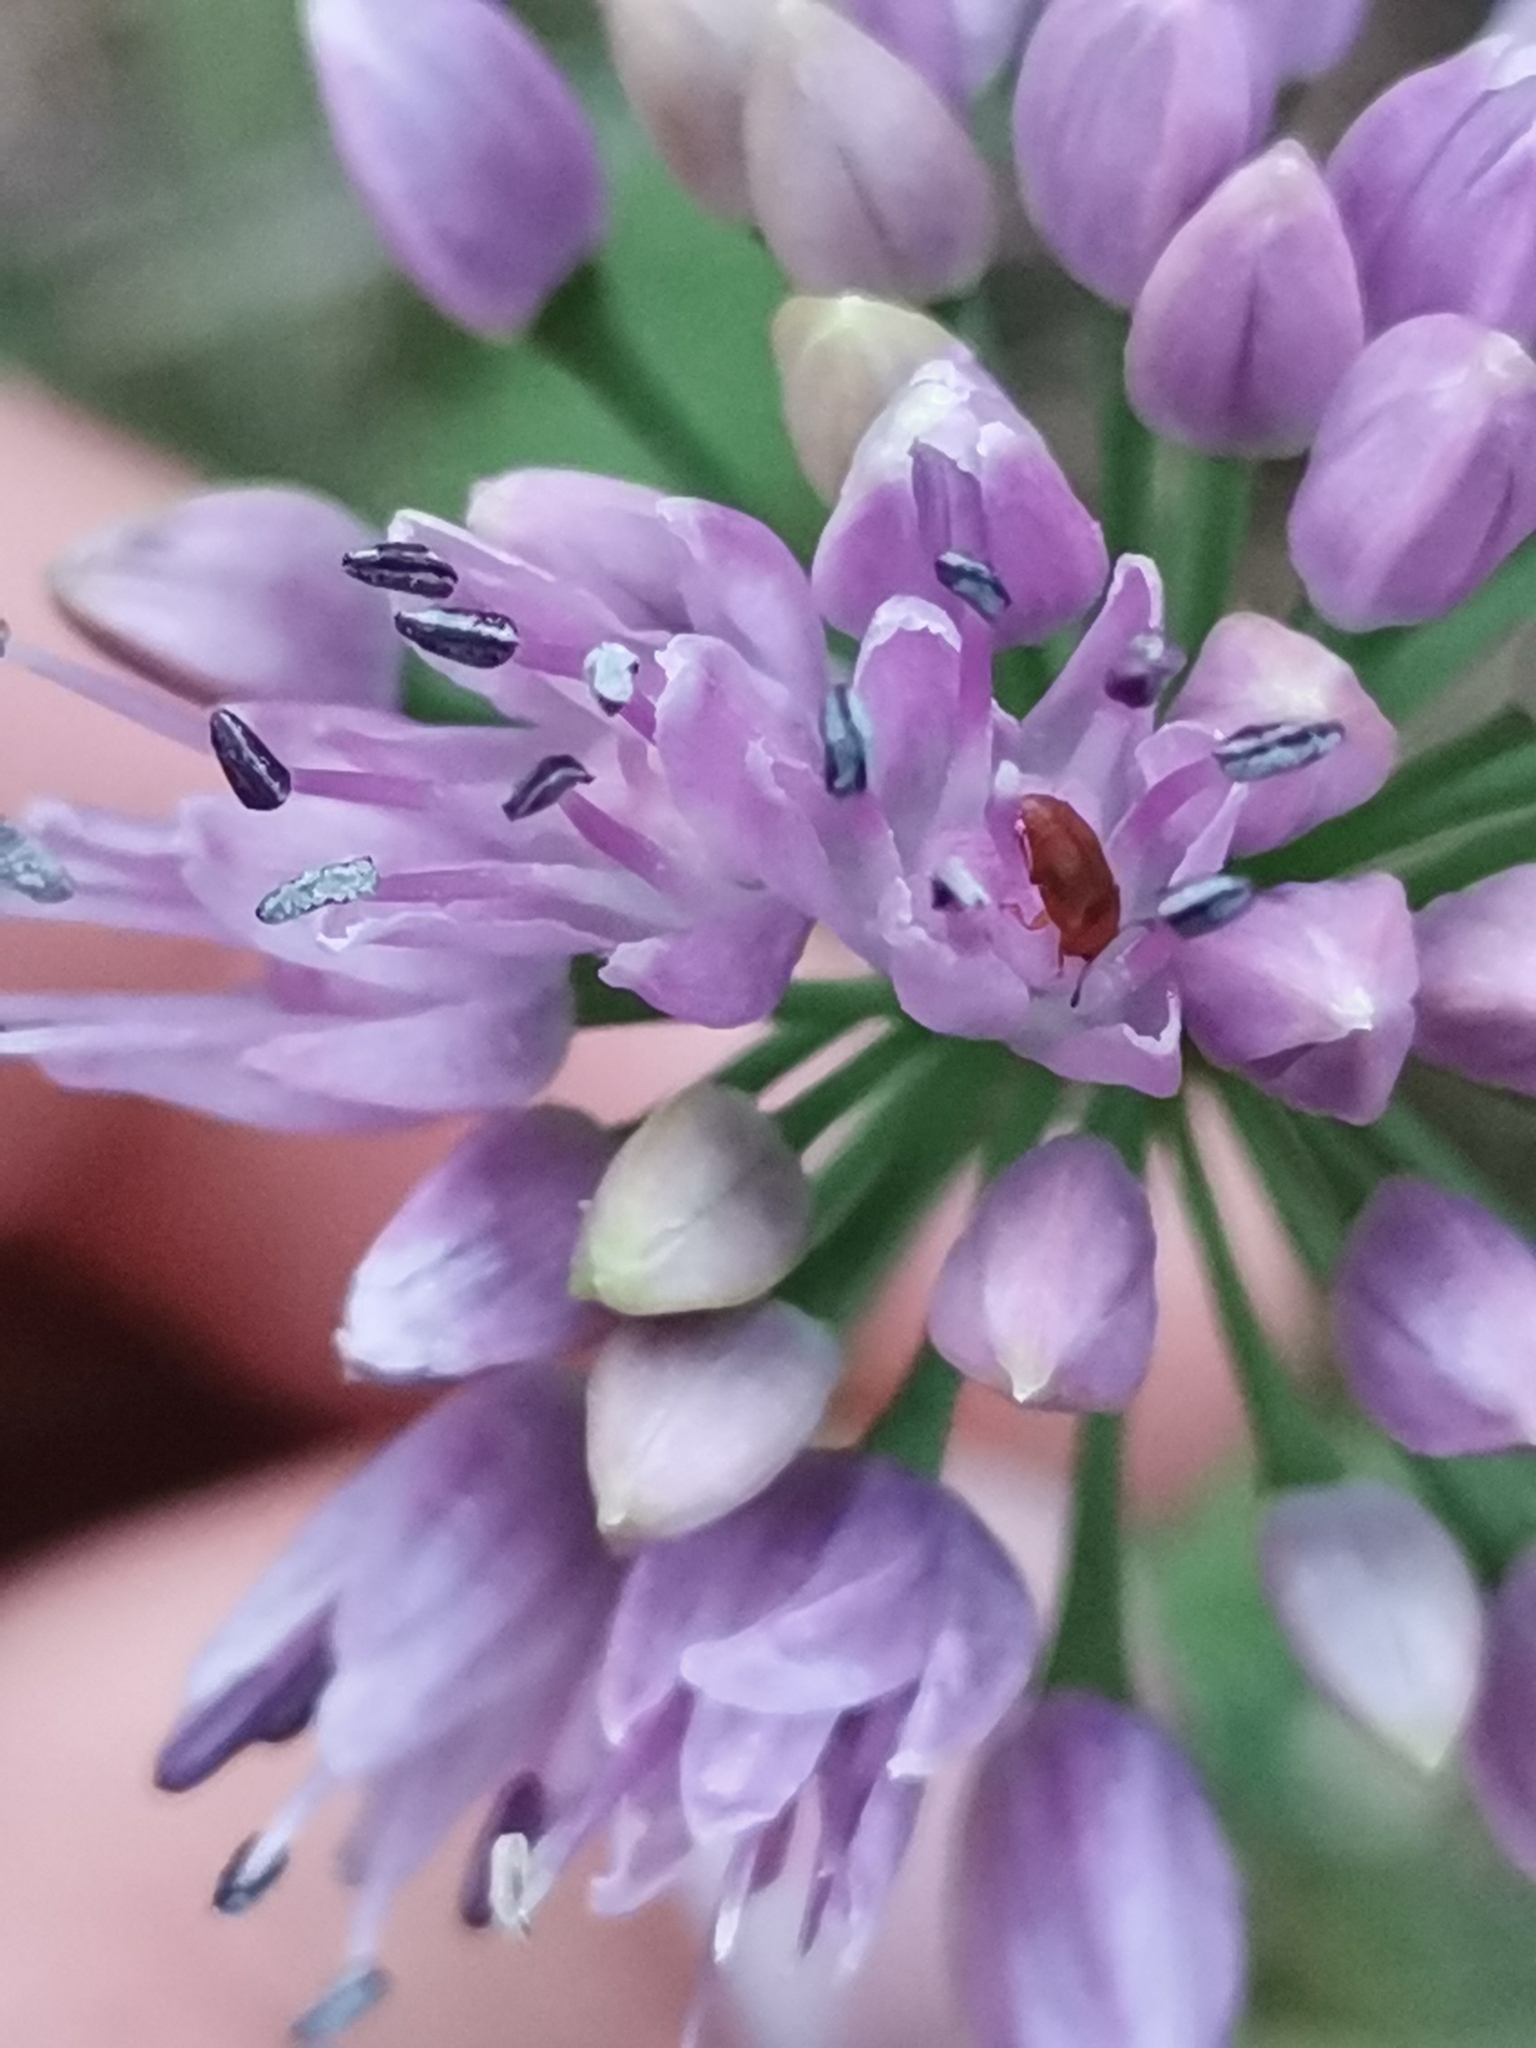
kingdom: Plantae
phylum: Tracheophyta
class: Liliopsida
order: Asparagales
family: Amaryllidaceae
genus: Allium
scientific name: Allium lusitanicum
